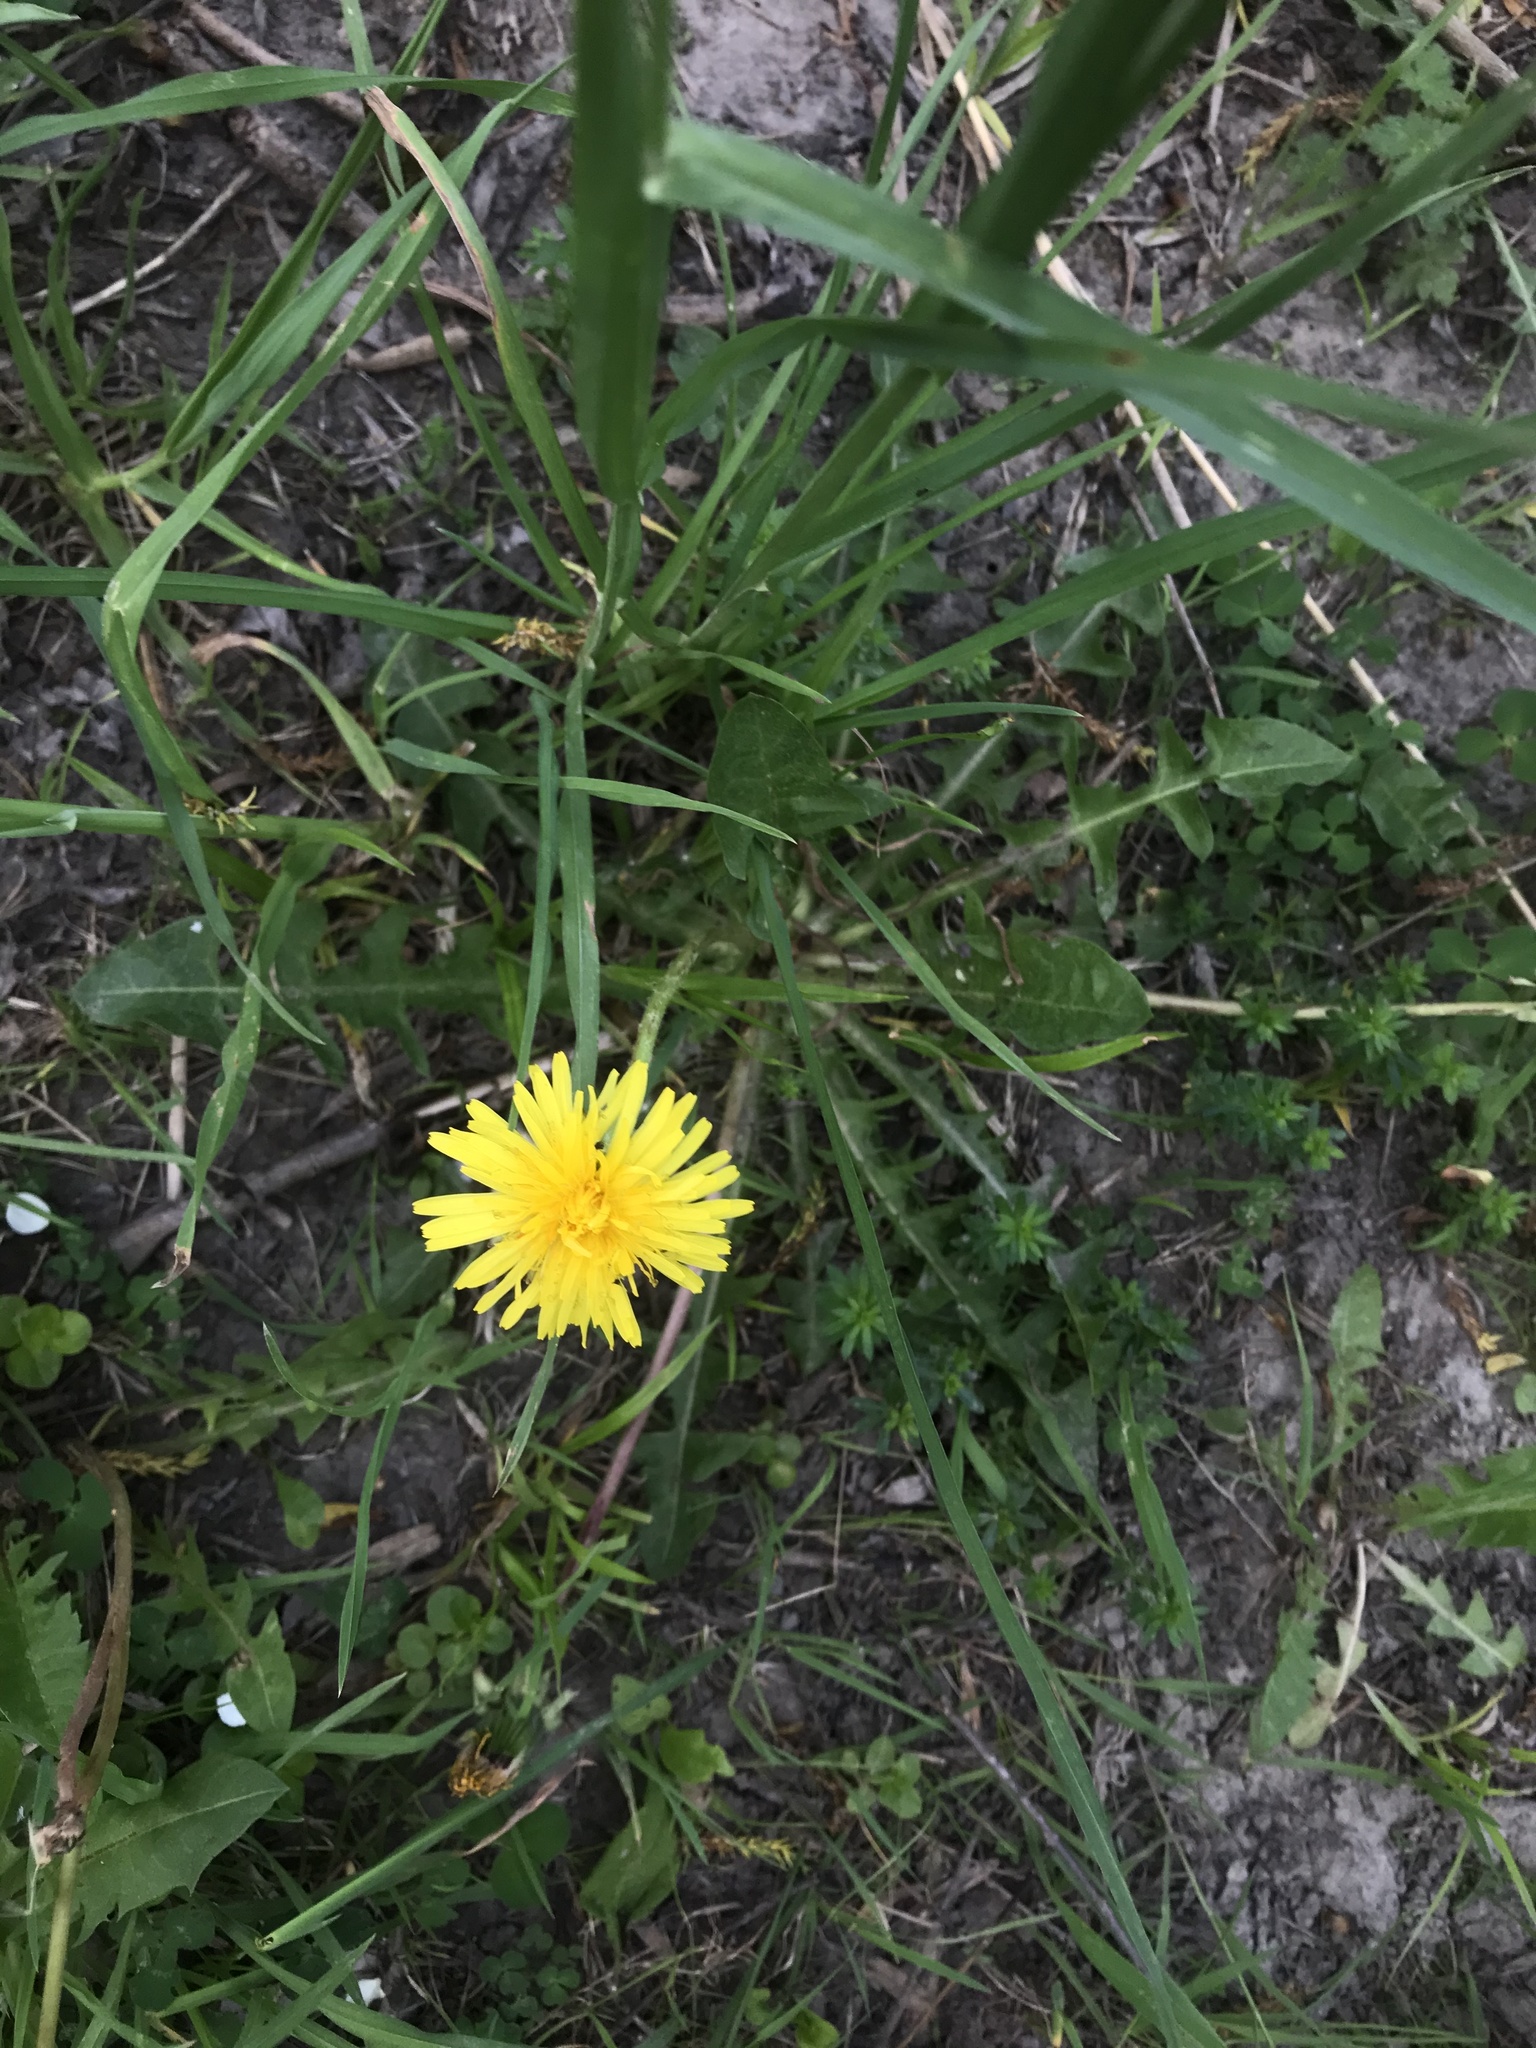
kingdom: Plantae
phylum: Tracheophyta
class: Magnoliopsida
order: Asterales
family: Asteraceae
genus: Taraxacum
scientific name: Taraxacum officinale
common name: Common dandelion
